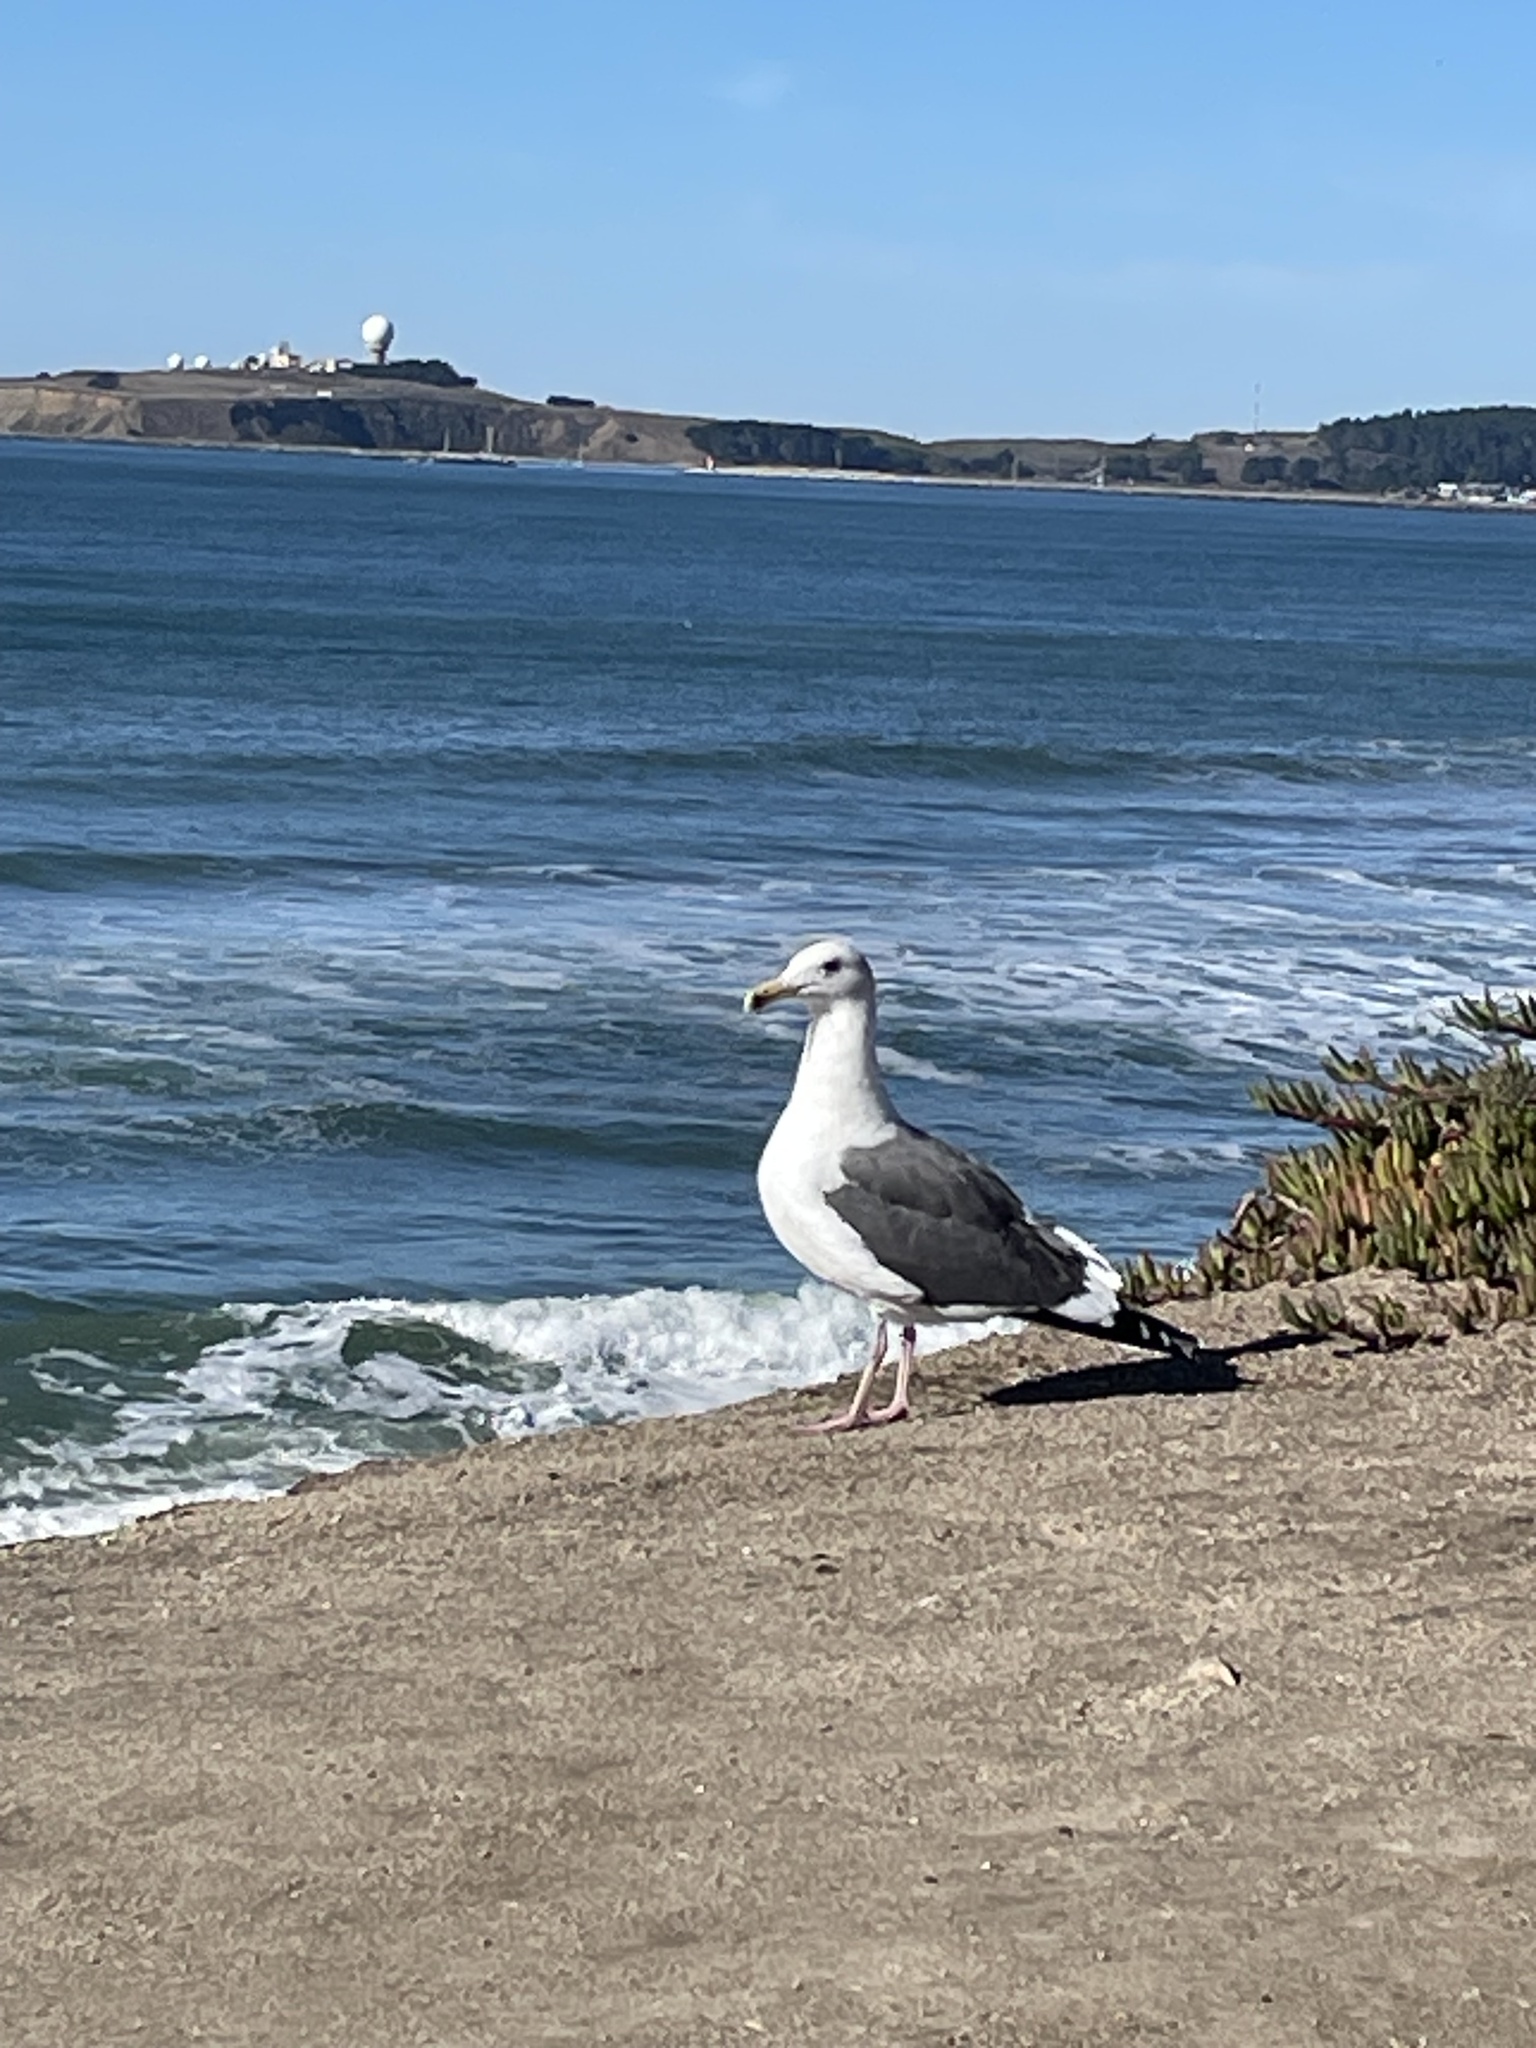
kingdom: Animalia
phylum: Chordata
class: Aves
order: Charadriiformes
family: Laridae
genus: Larus
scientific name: Larus occidentalis
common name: Western gull
